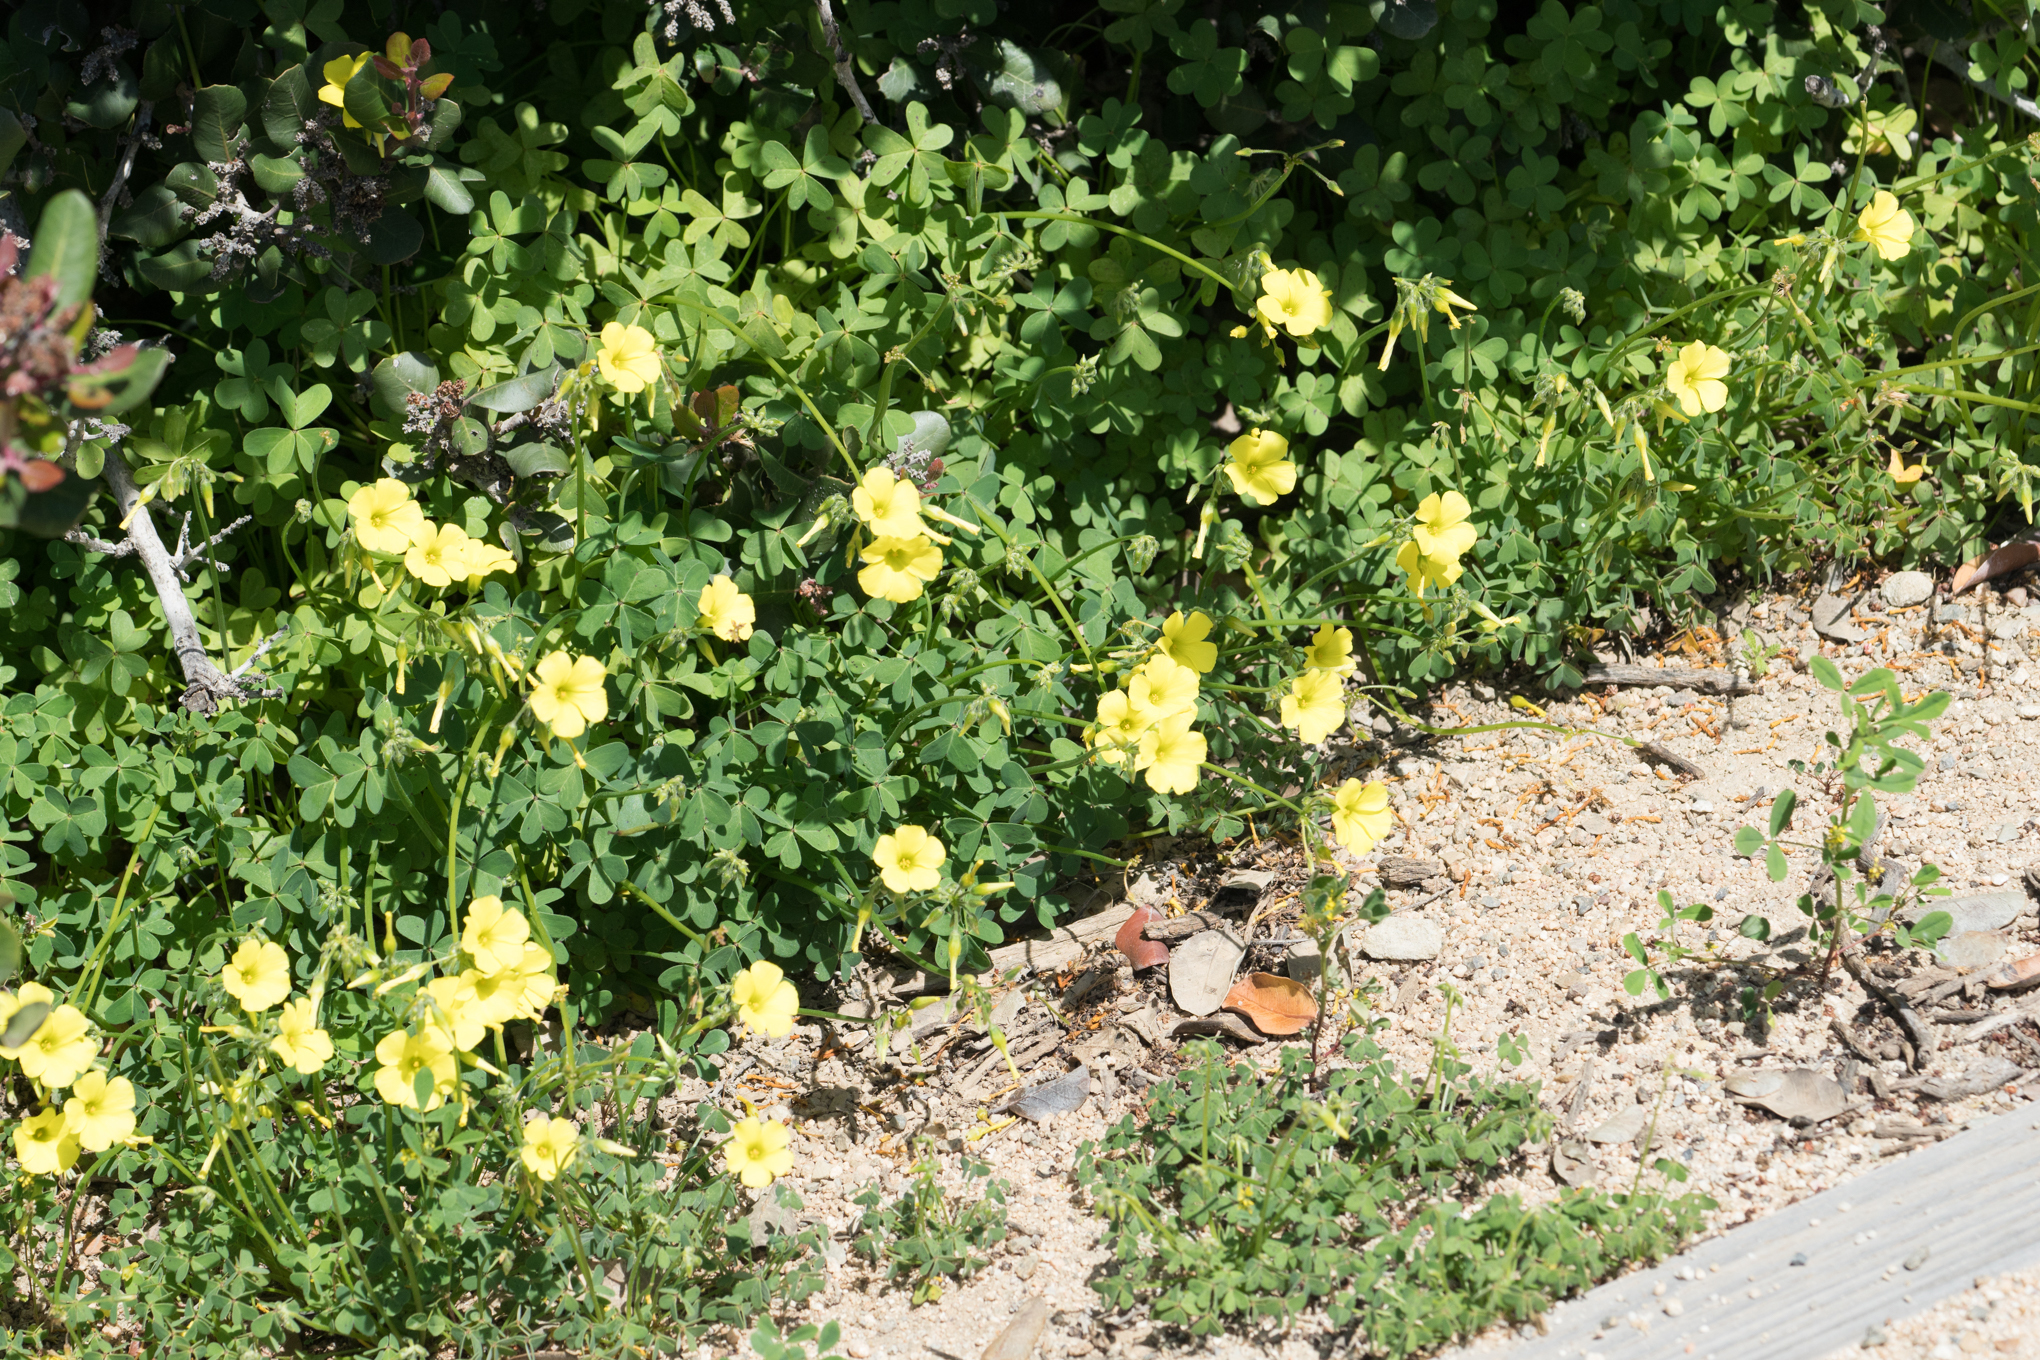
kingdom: Plantae
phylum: Tracheophyta
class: Magnoliopsida
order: Oxalidales
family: Oxalidaceae
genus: Oxalis
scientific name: Oxalis pes-caprae
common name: Bermuda-buttercup
